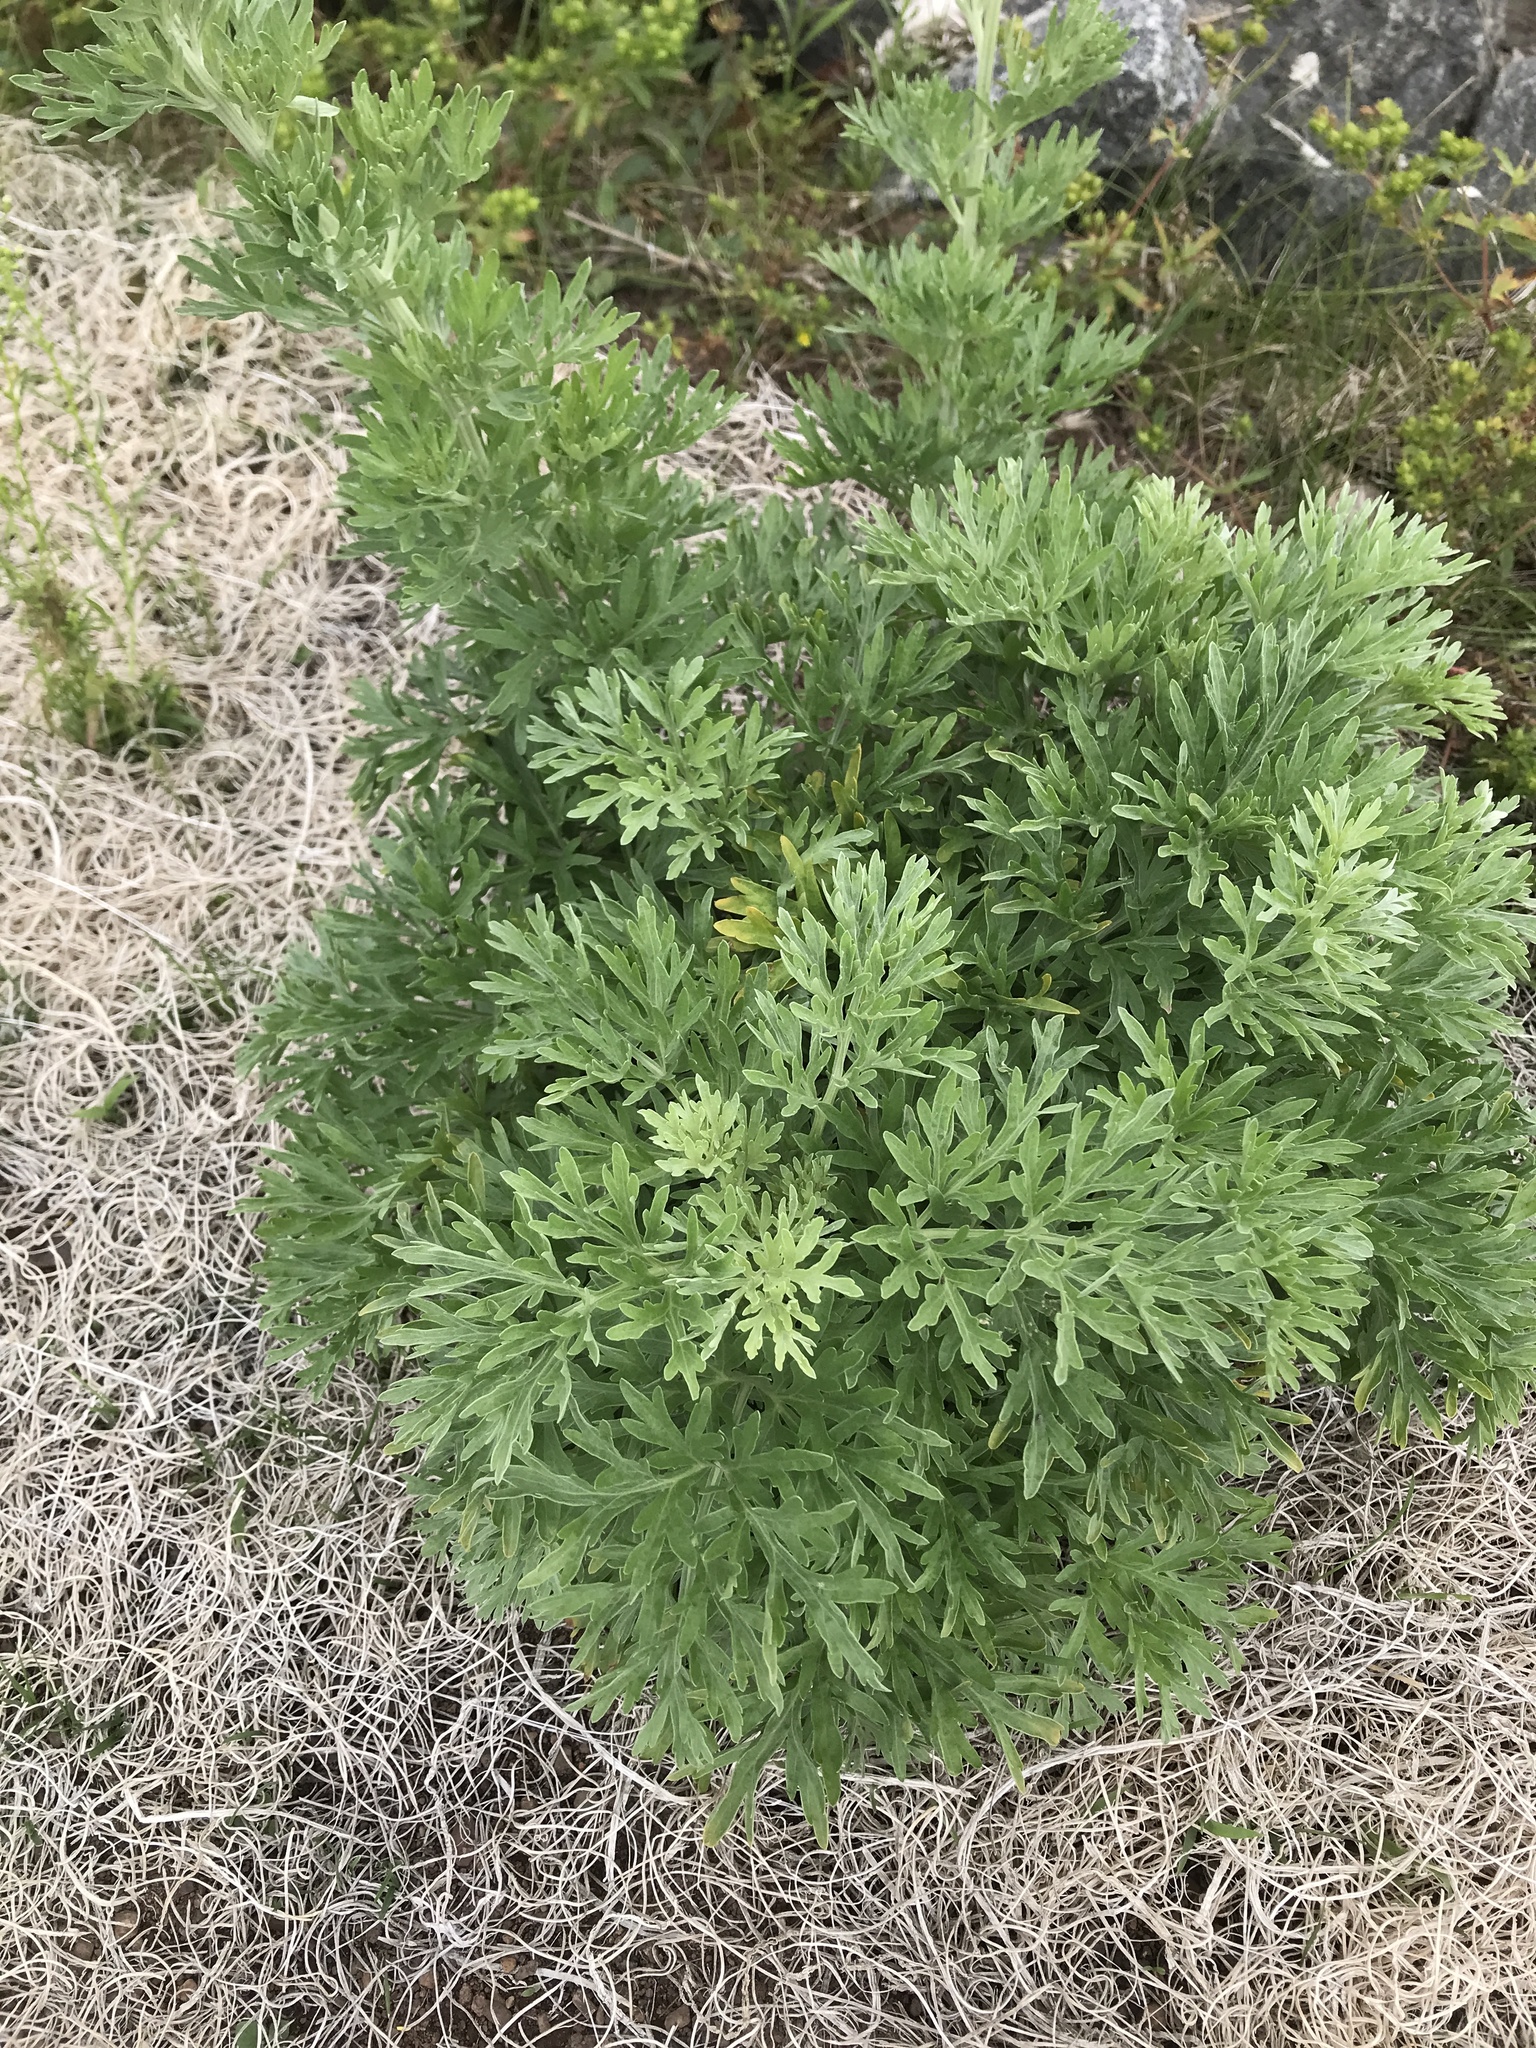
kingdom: Plantae
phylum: Tracheophyta
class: Magnoliopsida
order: Asterales
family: Asteraceae
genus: Artemisia
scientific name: Artemisia absinthium
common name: Wormwood
